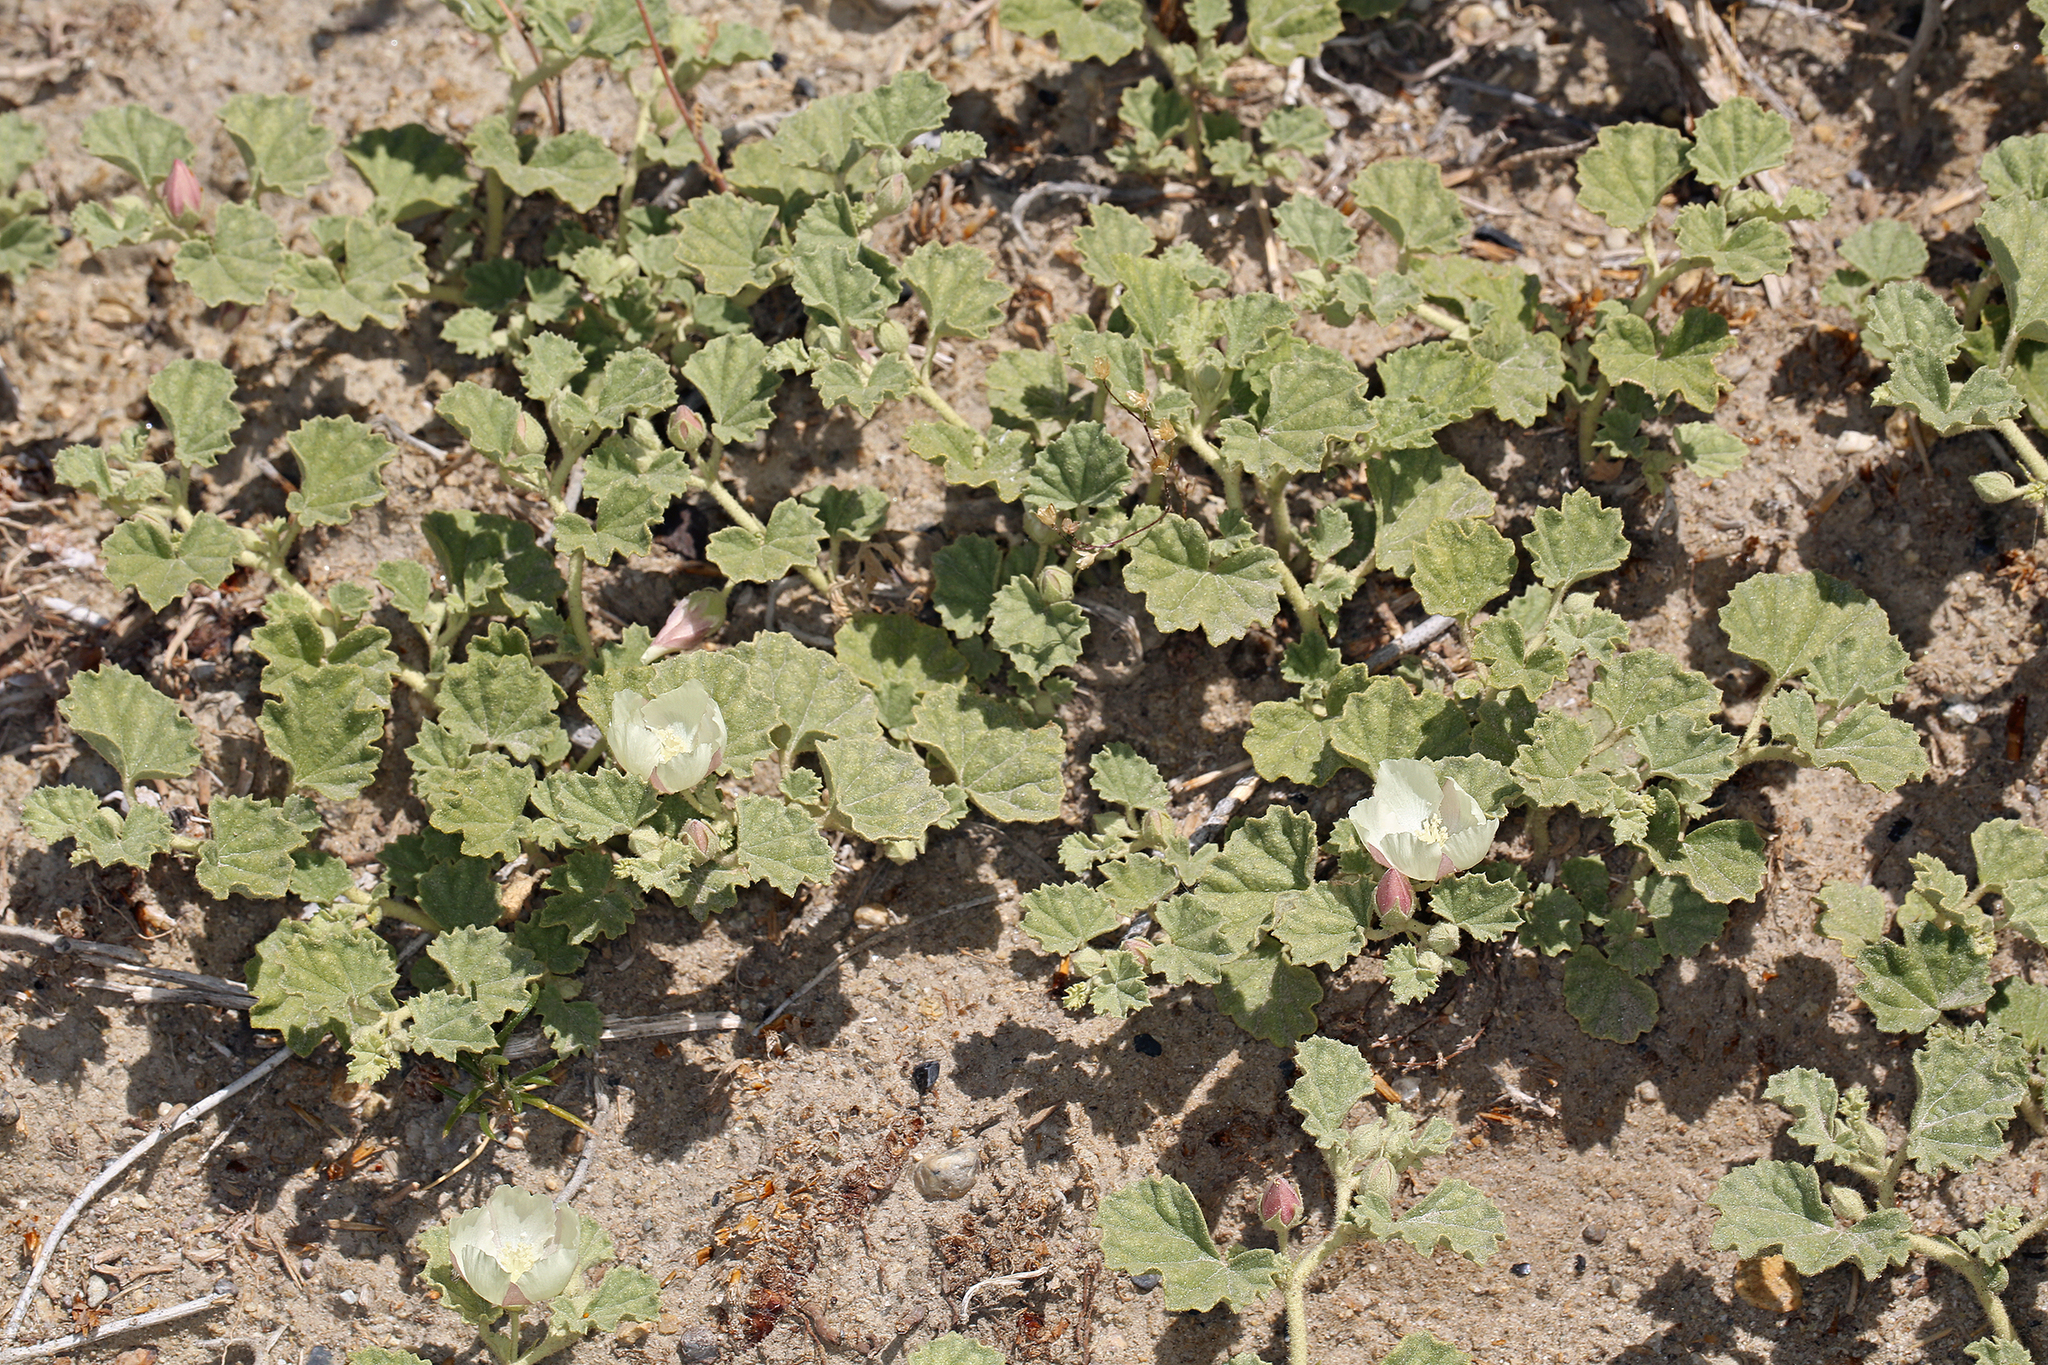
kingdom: Plantae
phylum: Tracheophyta
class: Magnoliopsida
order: Malvales
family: Malvaceae
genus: Malvella
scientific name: Malvella leprosa
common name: Alkali-mallow
